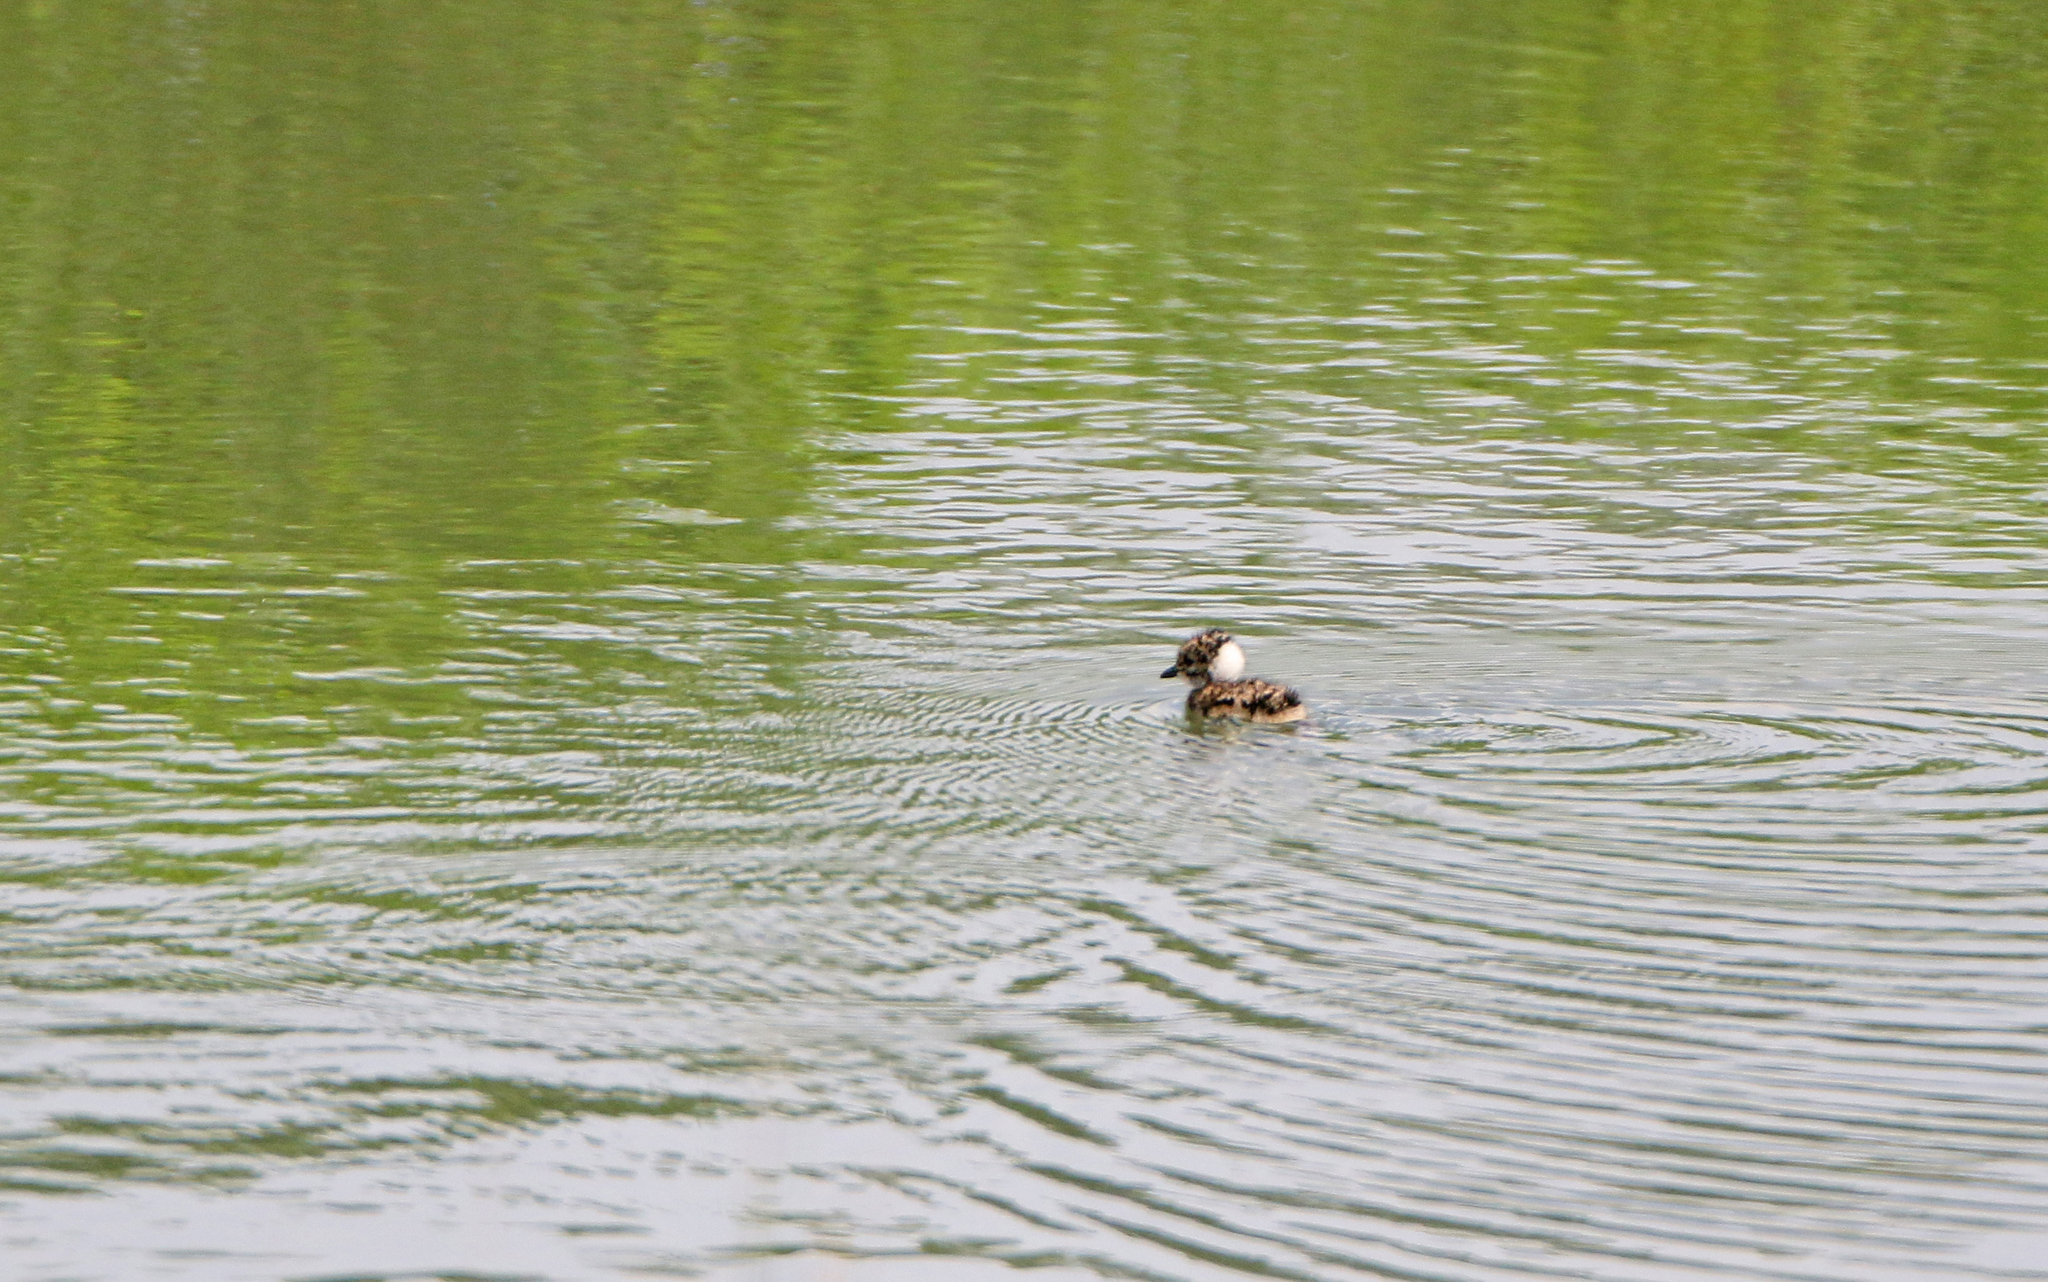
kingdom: Animalia
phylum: Chordata
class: Aves
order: Charadriiformes
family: Charadriidae
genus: Vanellus
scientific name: Vanellus vanellus
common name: Northern lapwing
